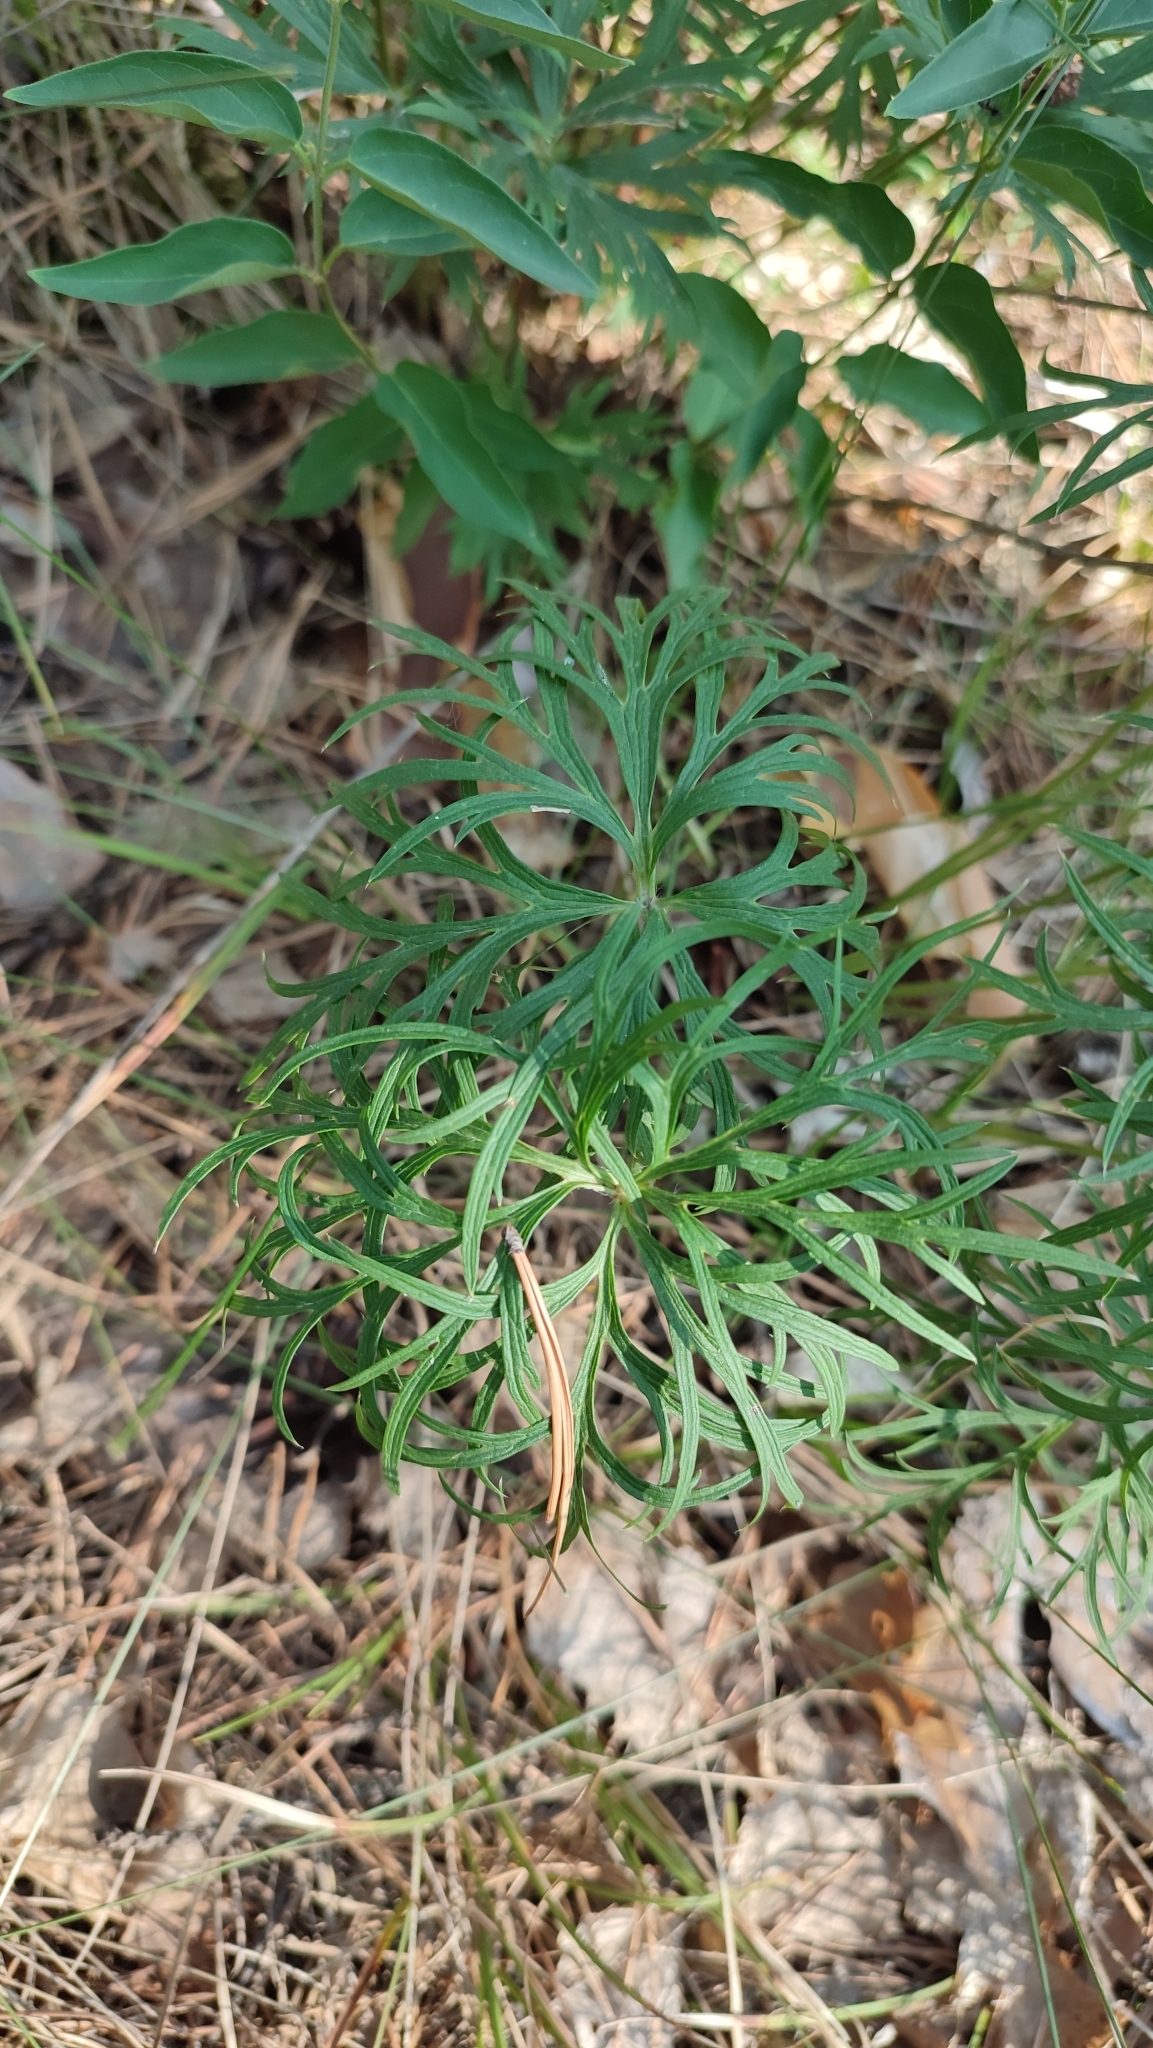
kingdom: Plantae
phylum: Tracheophyta
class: Magnoliopsida
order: Ranunculales
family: Ranunculaceae
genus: Pulsatilla
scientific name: Pulsatilla patens
